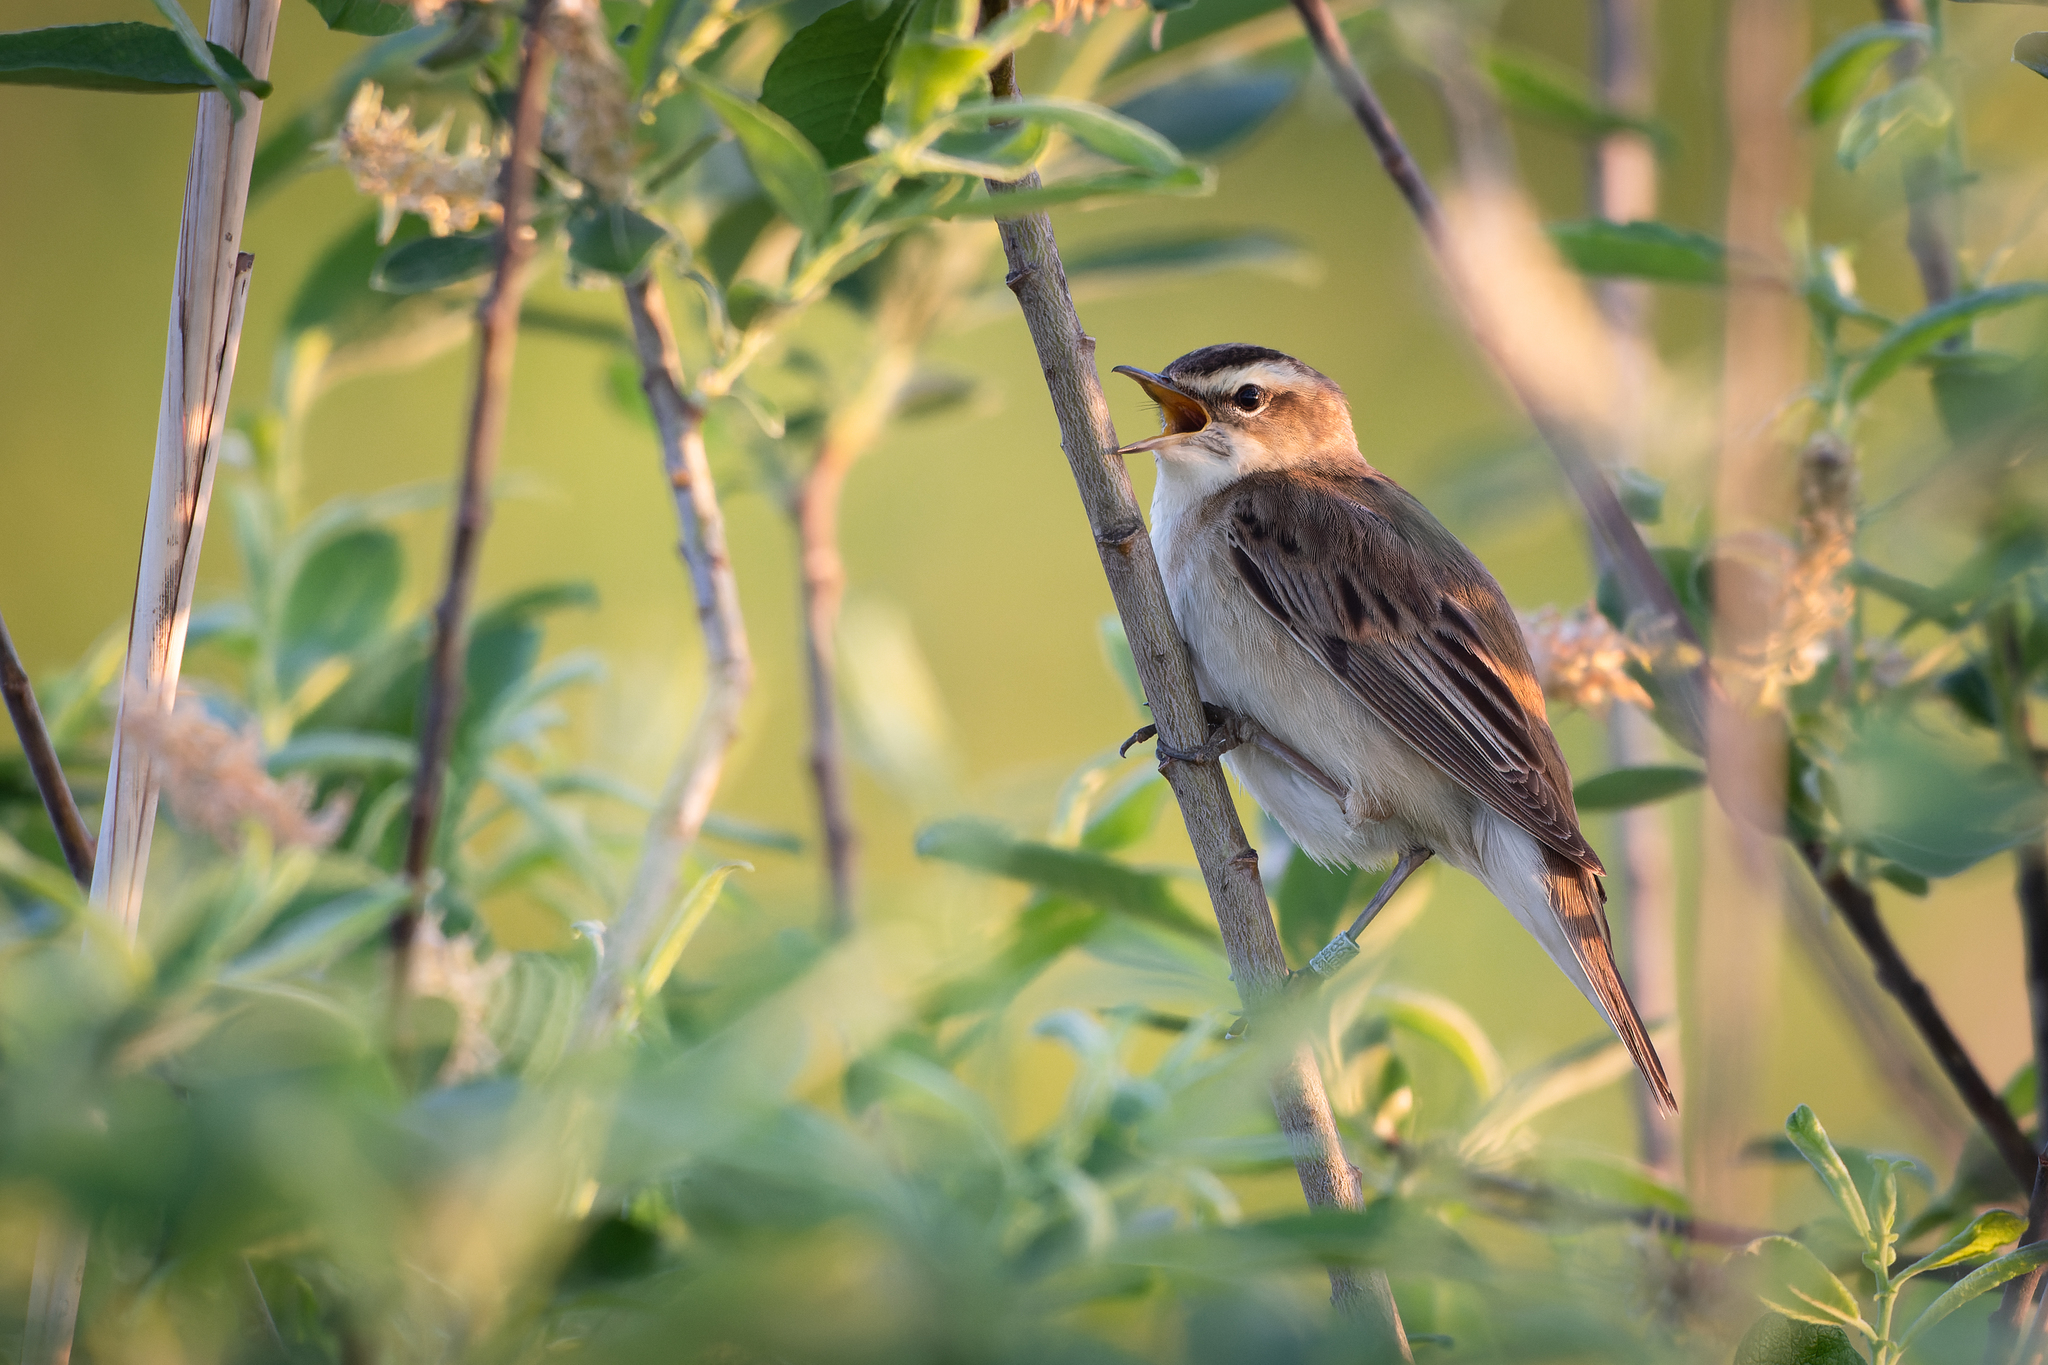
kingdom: Animalia
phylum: Chordata
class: Aves
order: Passeriformes
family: Acrocephalidae
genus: Acrocephalus
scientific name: Acrocephalus schoenobaenus
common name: Sedge warbler
